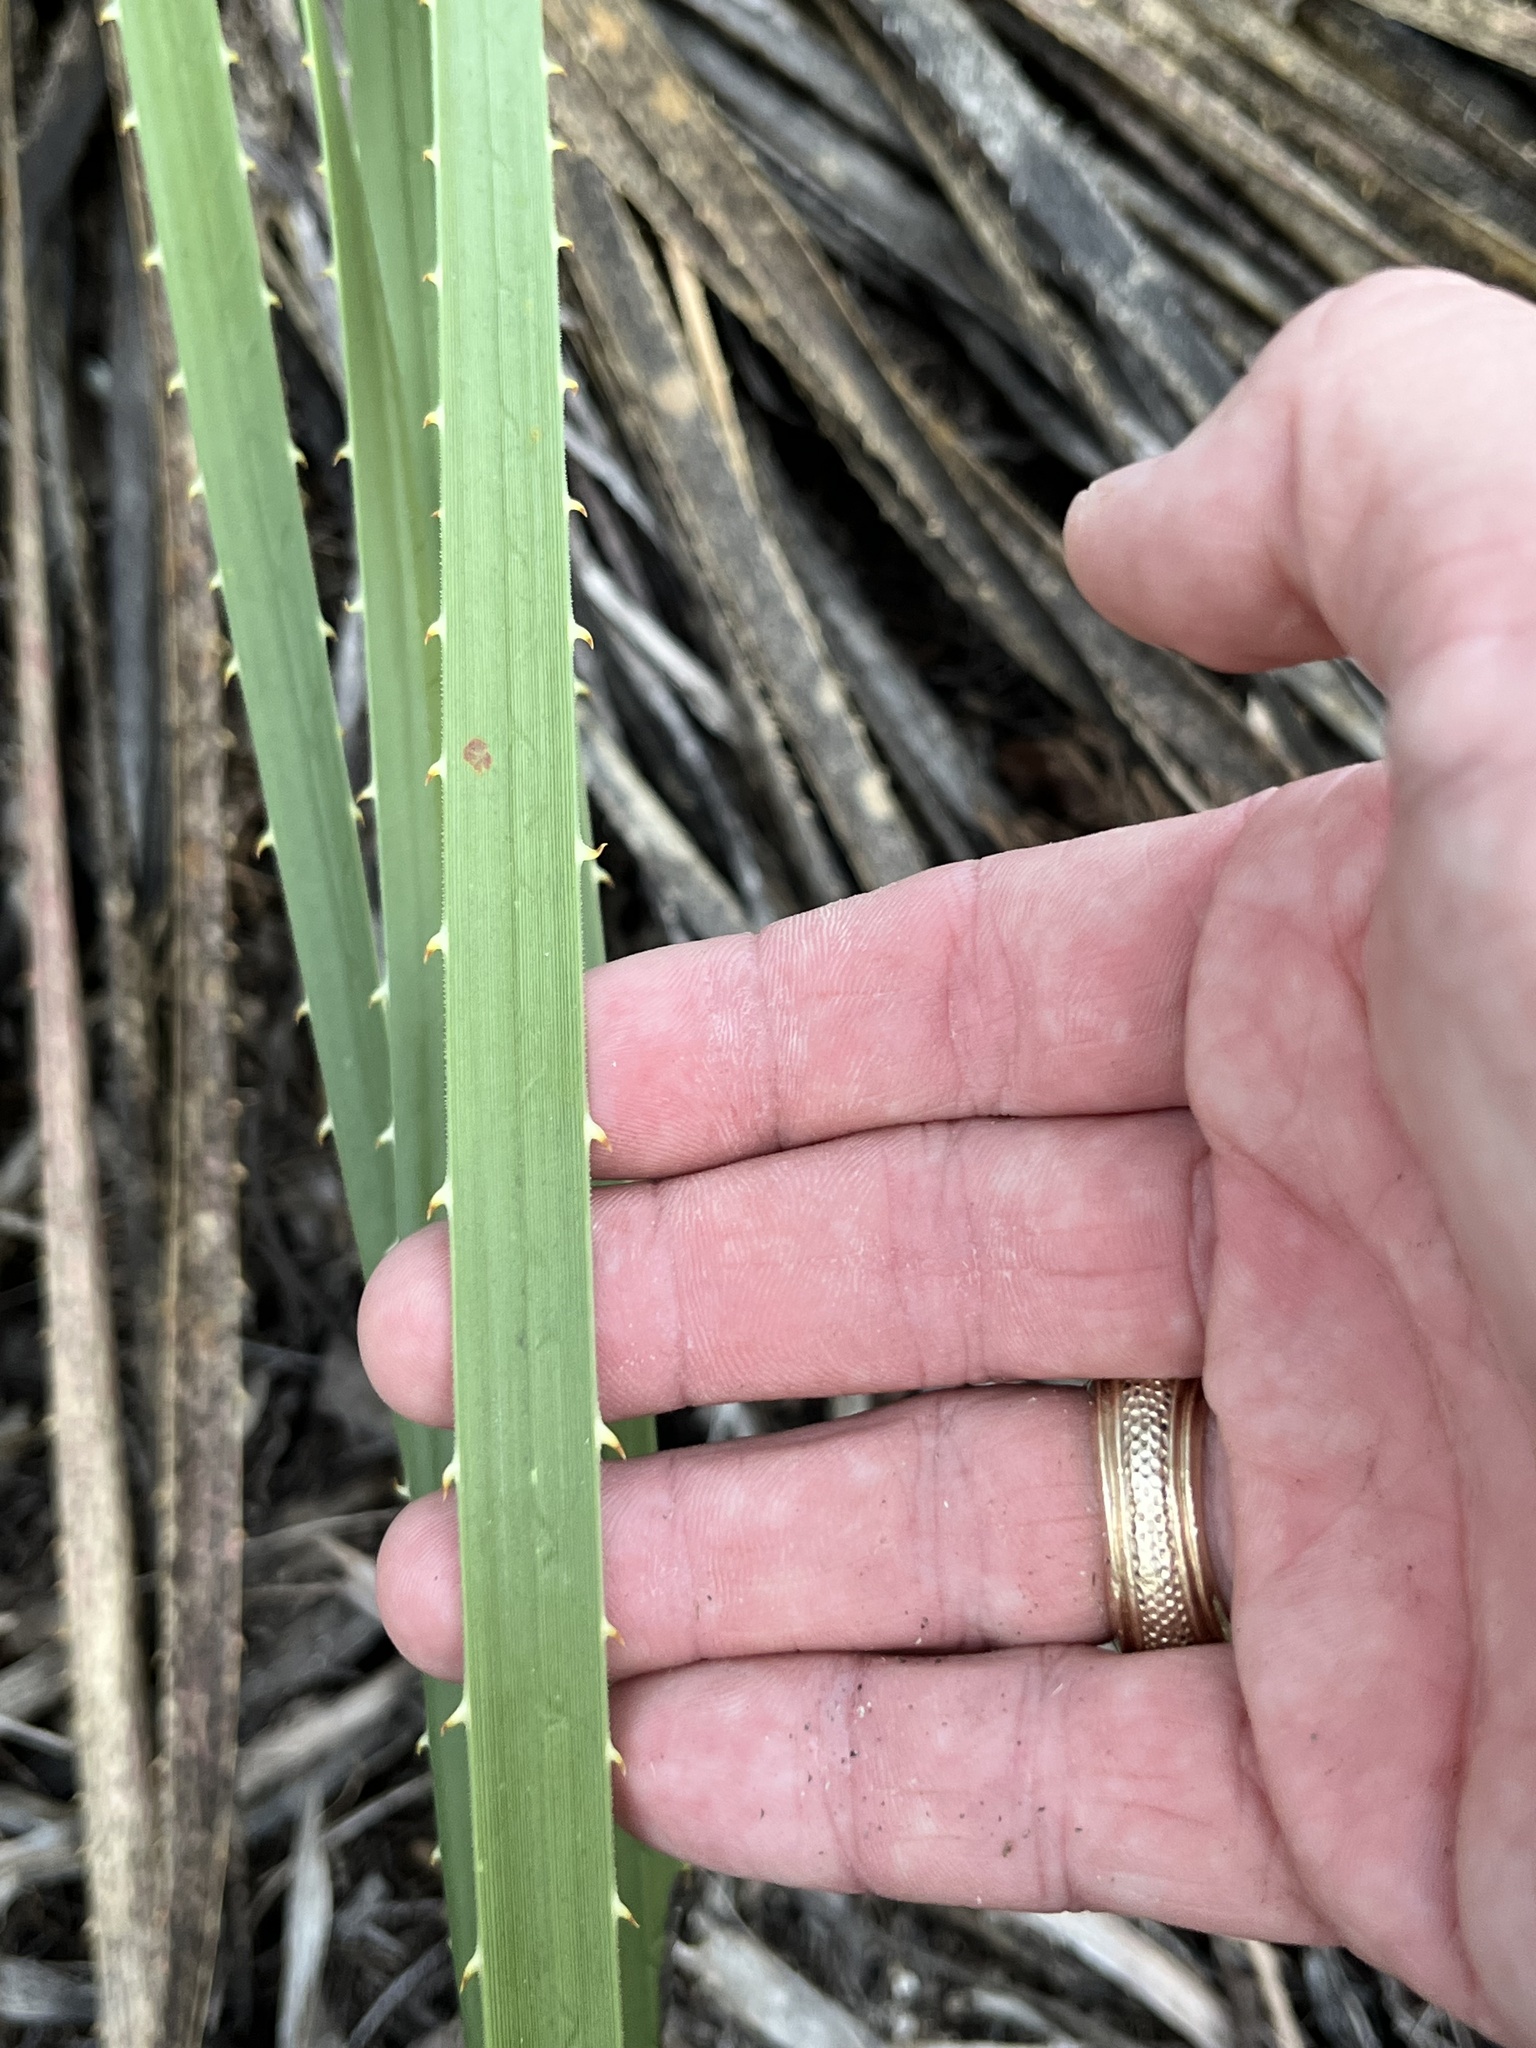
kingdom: Plantae
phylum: Tracheophyta
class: Liliopsida
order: Asparagales
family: Asparagaceae
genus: Dasylirion
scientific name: Dasylirion texanum
